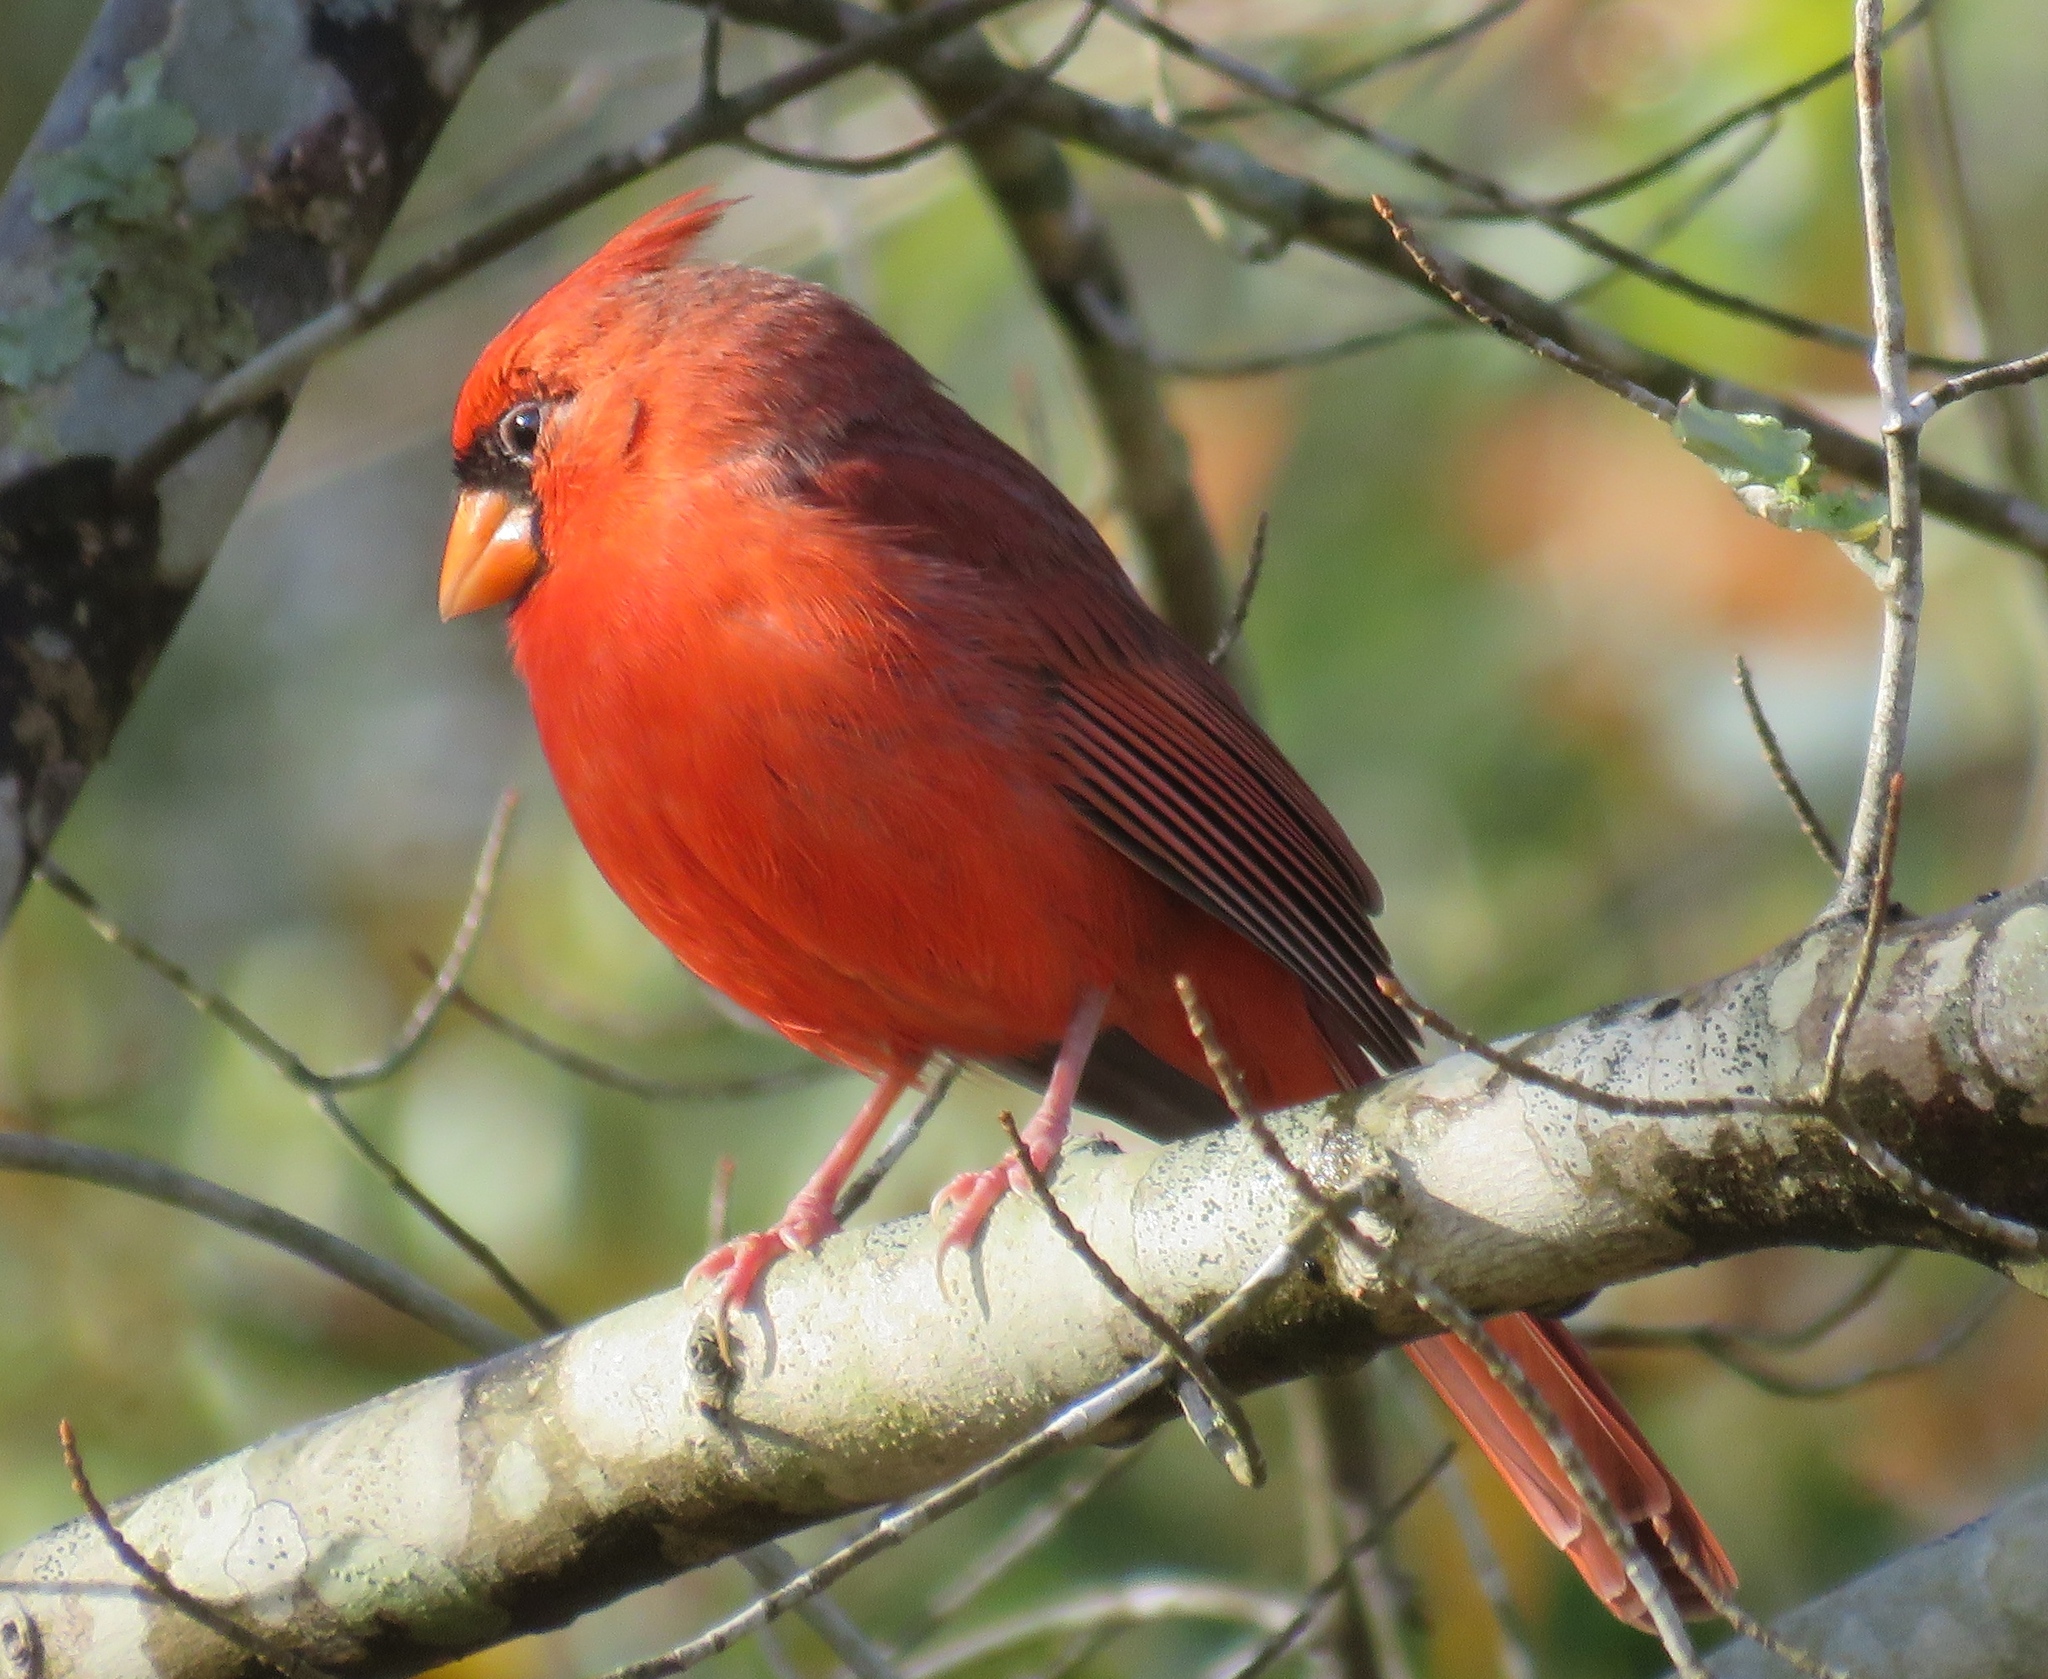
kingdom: Animalia
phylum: Chordata
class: Aves
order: Passeriformes
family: Cardinalidae
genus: Cardinalis
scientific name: Cardinalis cardinalis
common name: Northern cardinal
